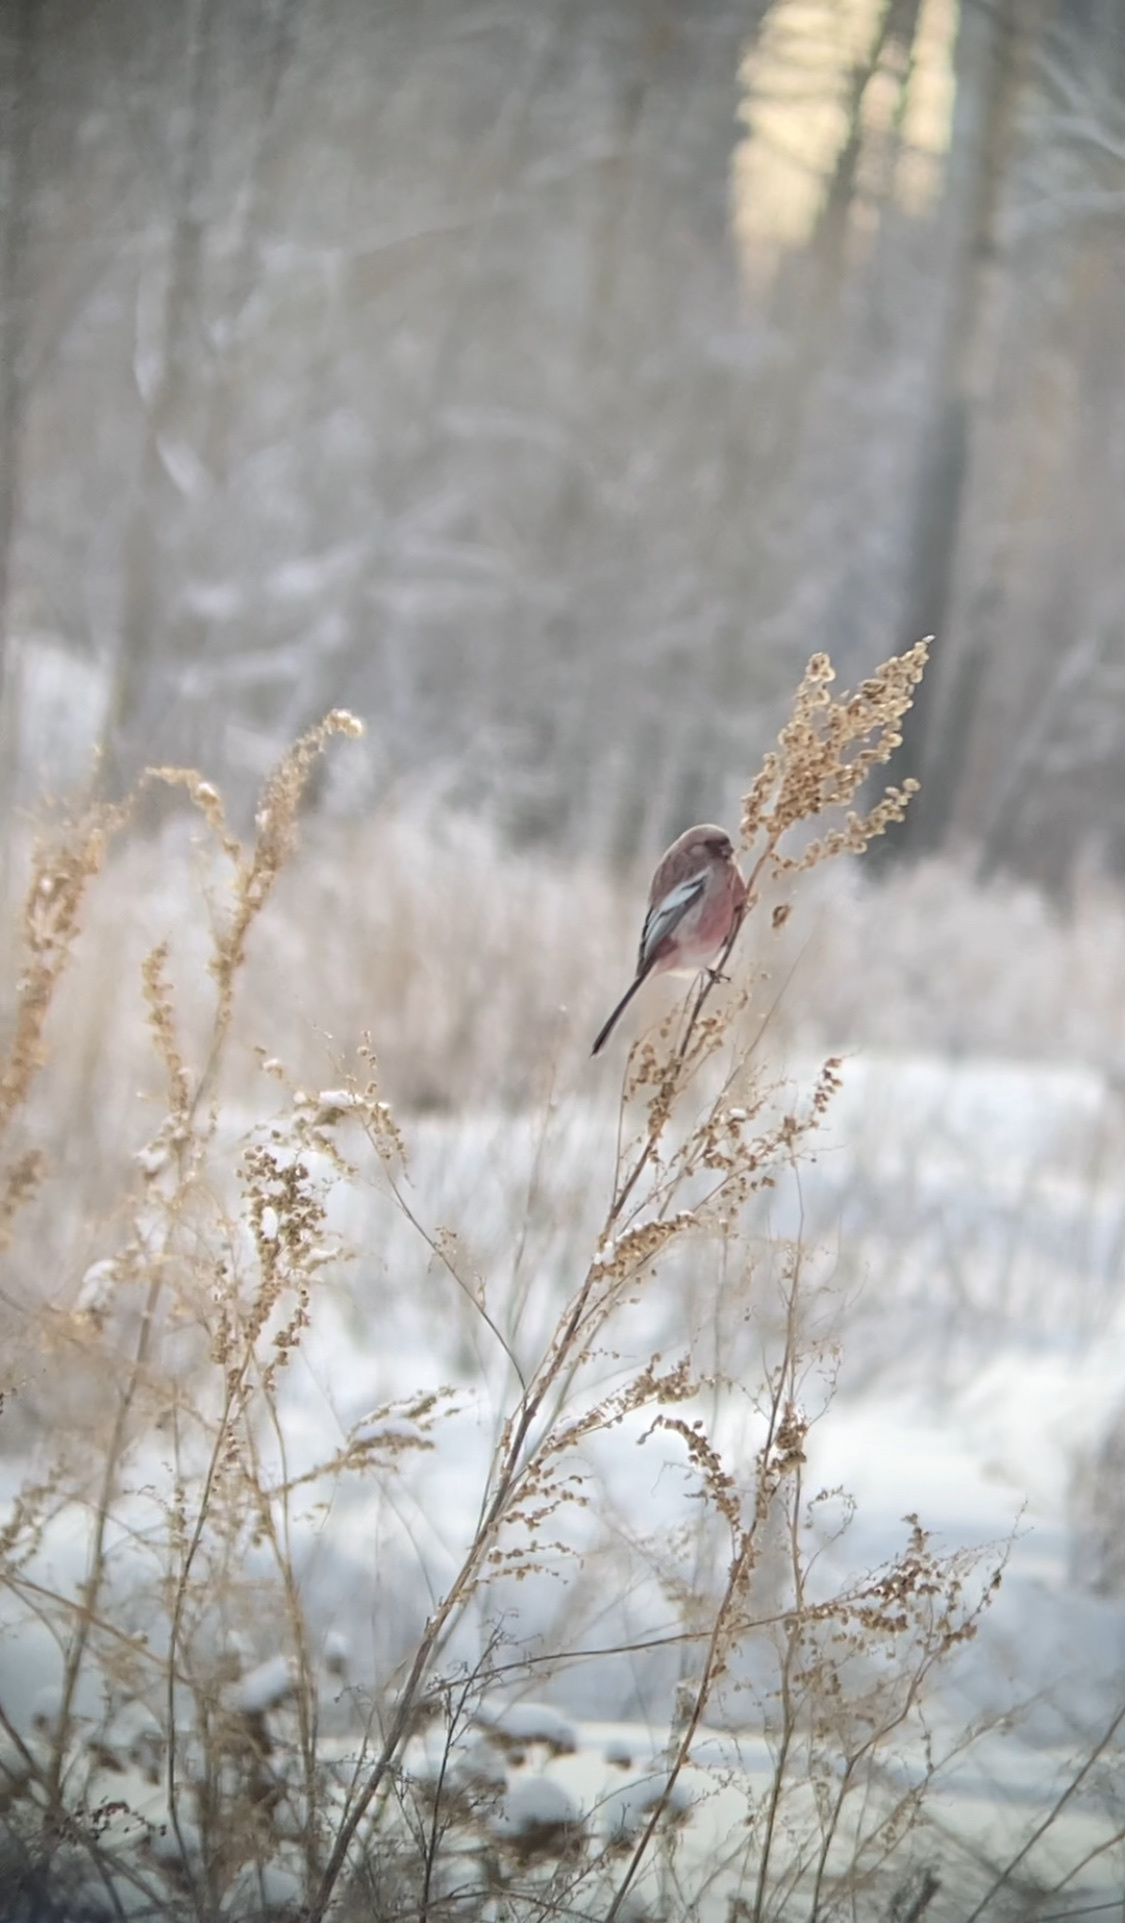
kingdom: Animalia
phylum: Chordata
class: Aves
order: Passeriformes
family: Fringillidae
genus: Carpodacus
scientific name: Carpodacus sibiricus
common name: Long-tailed rosefinch
